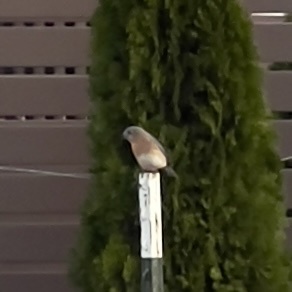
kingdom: Animalia
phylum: Chordata
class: Aves
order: Passeriformes
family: Turdidae
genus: Sialia
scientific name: Sialia sialis
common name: Eastern bluebird
